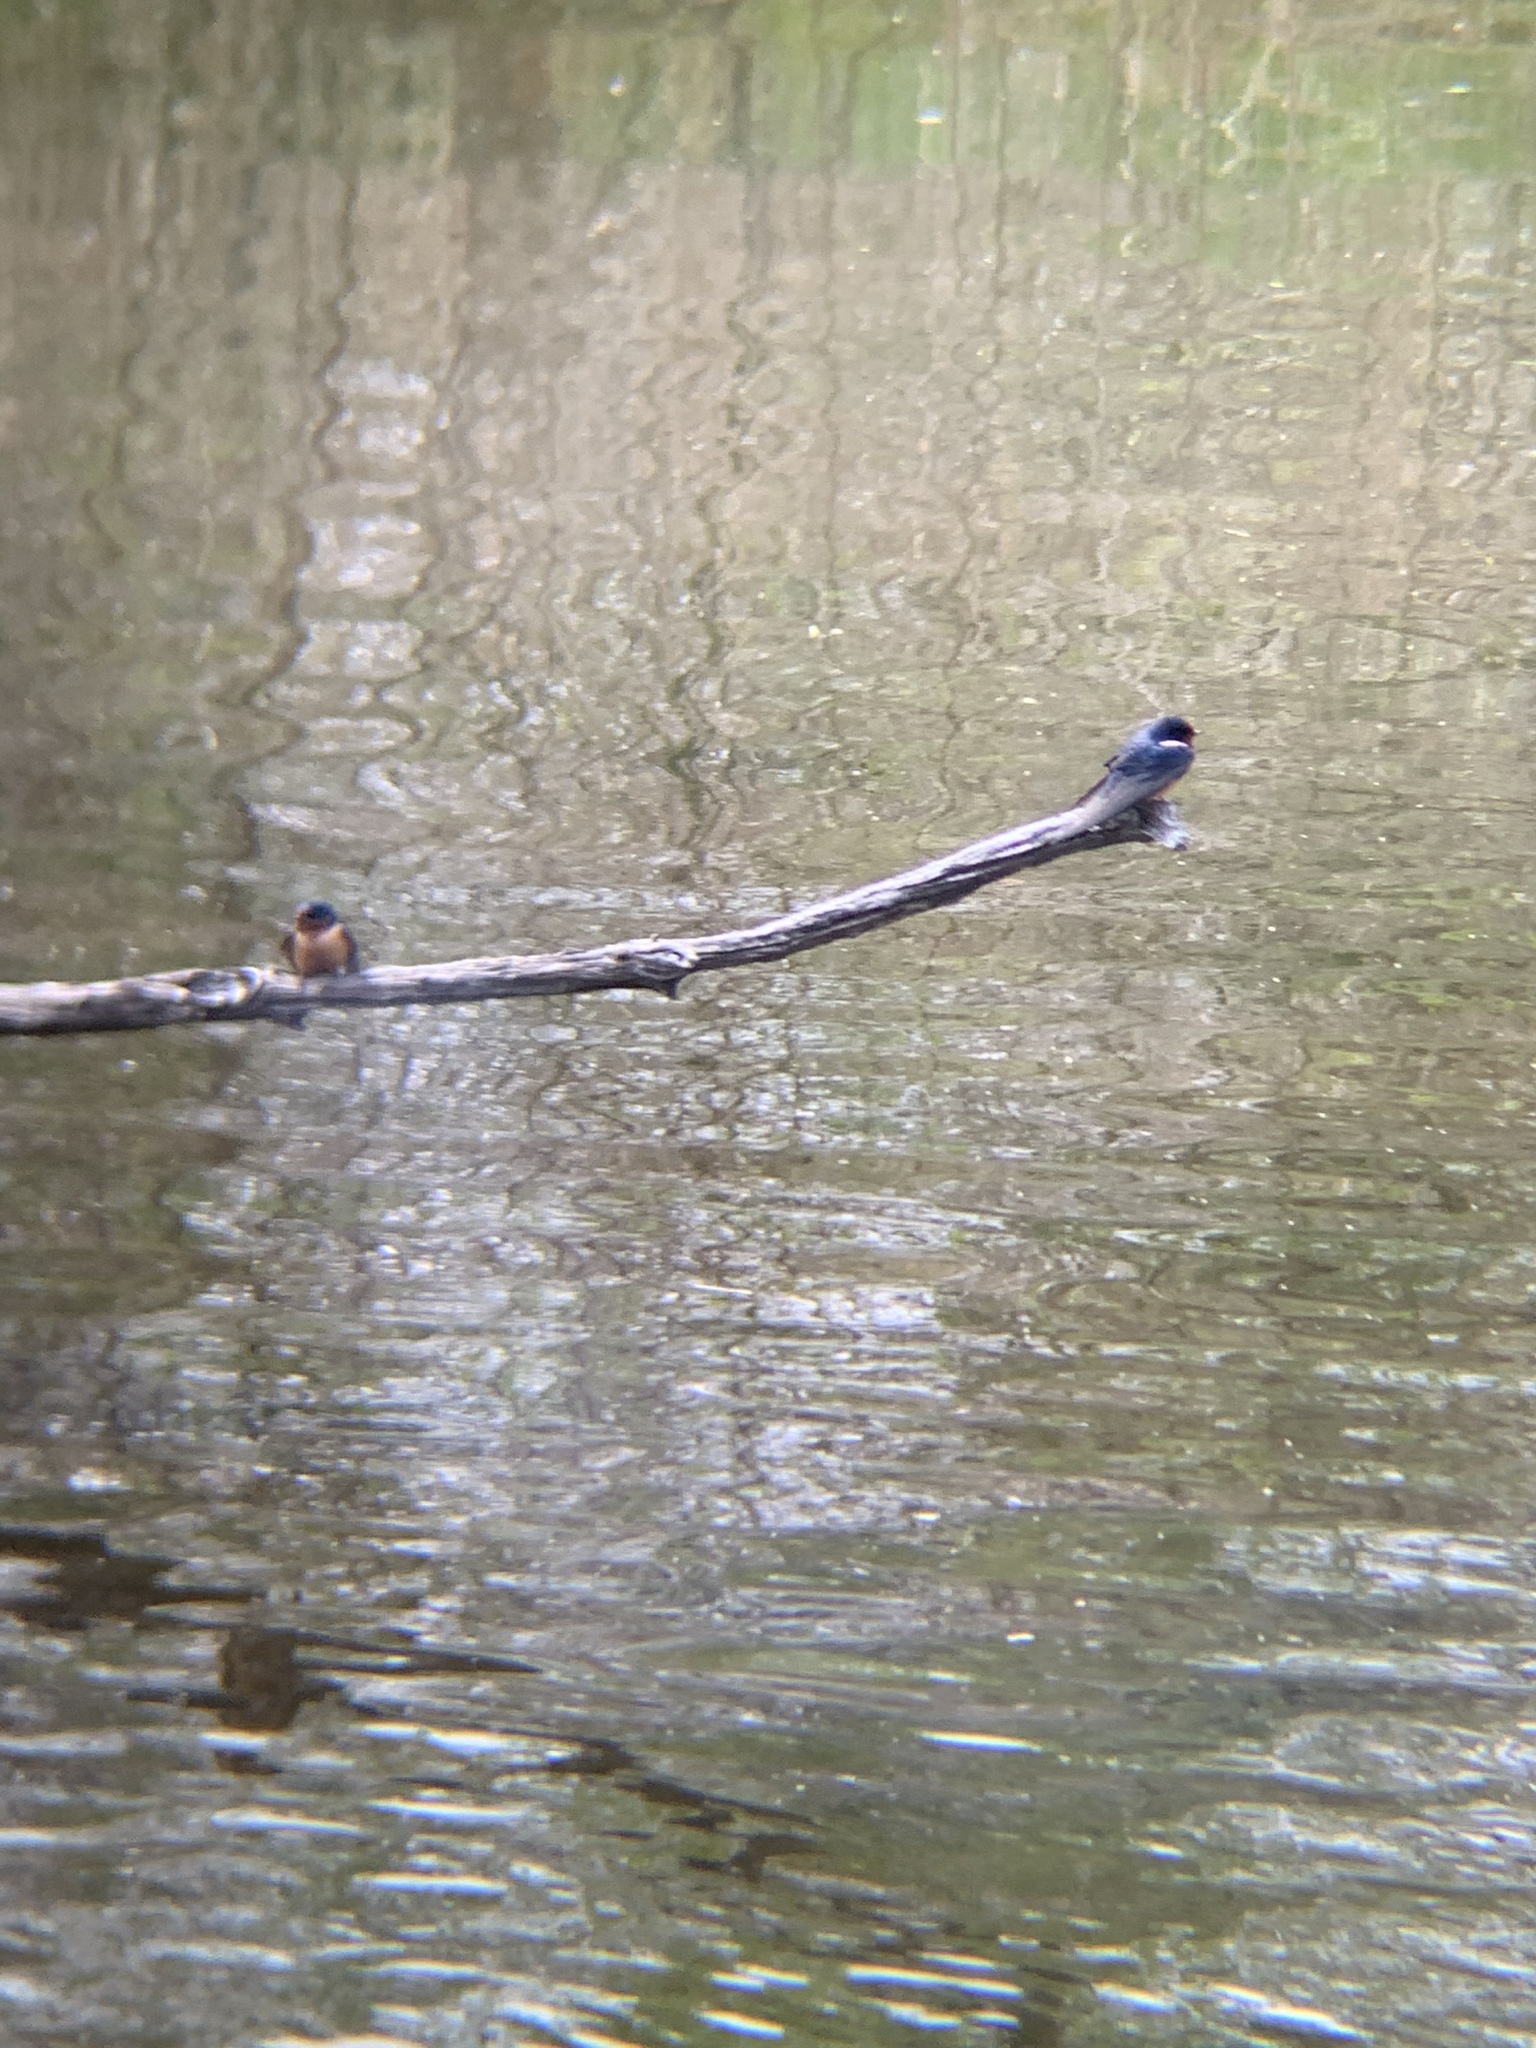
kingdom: Animalia
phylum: Chordata
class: Aves
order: Passeriformes
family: Hirundinidae
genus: Hirundo
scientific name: Hirundo rustica
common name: Barn swallow
